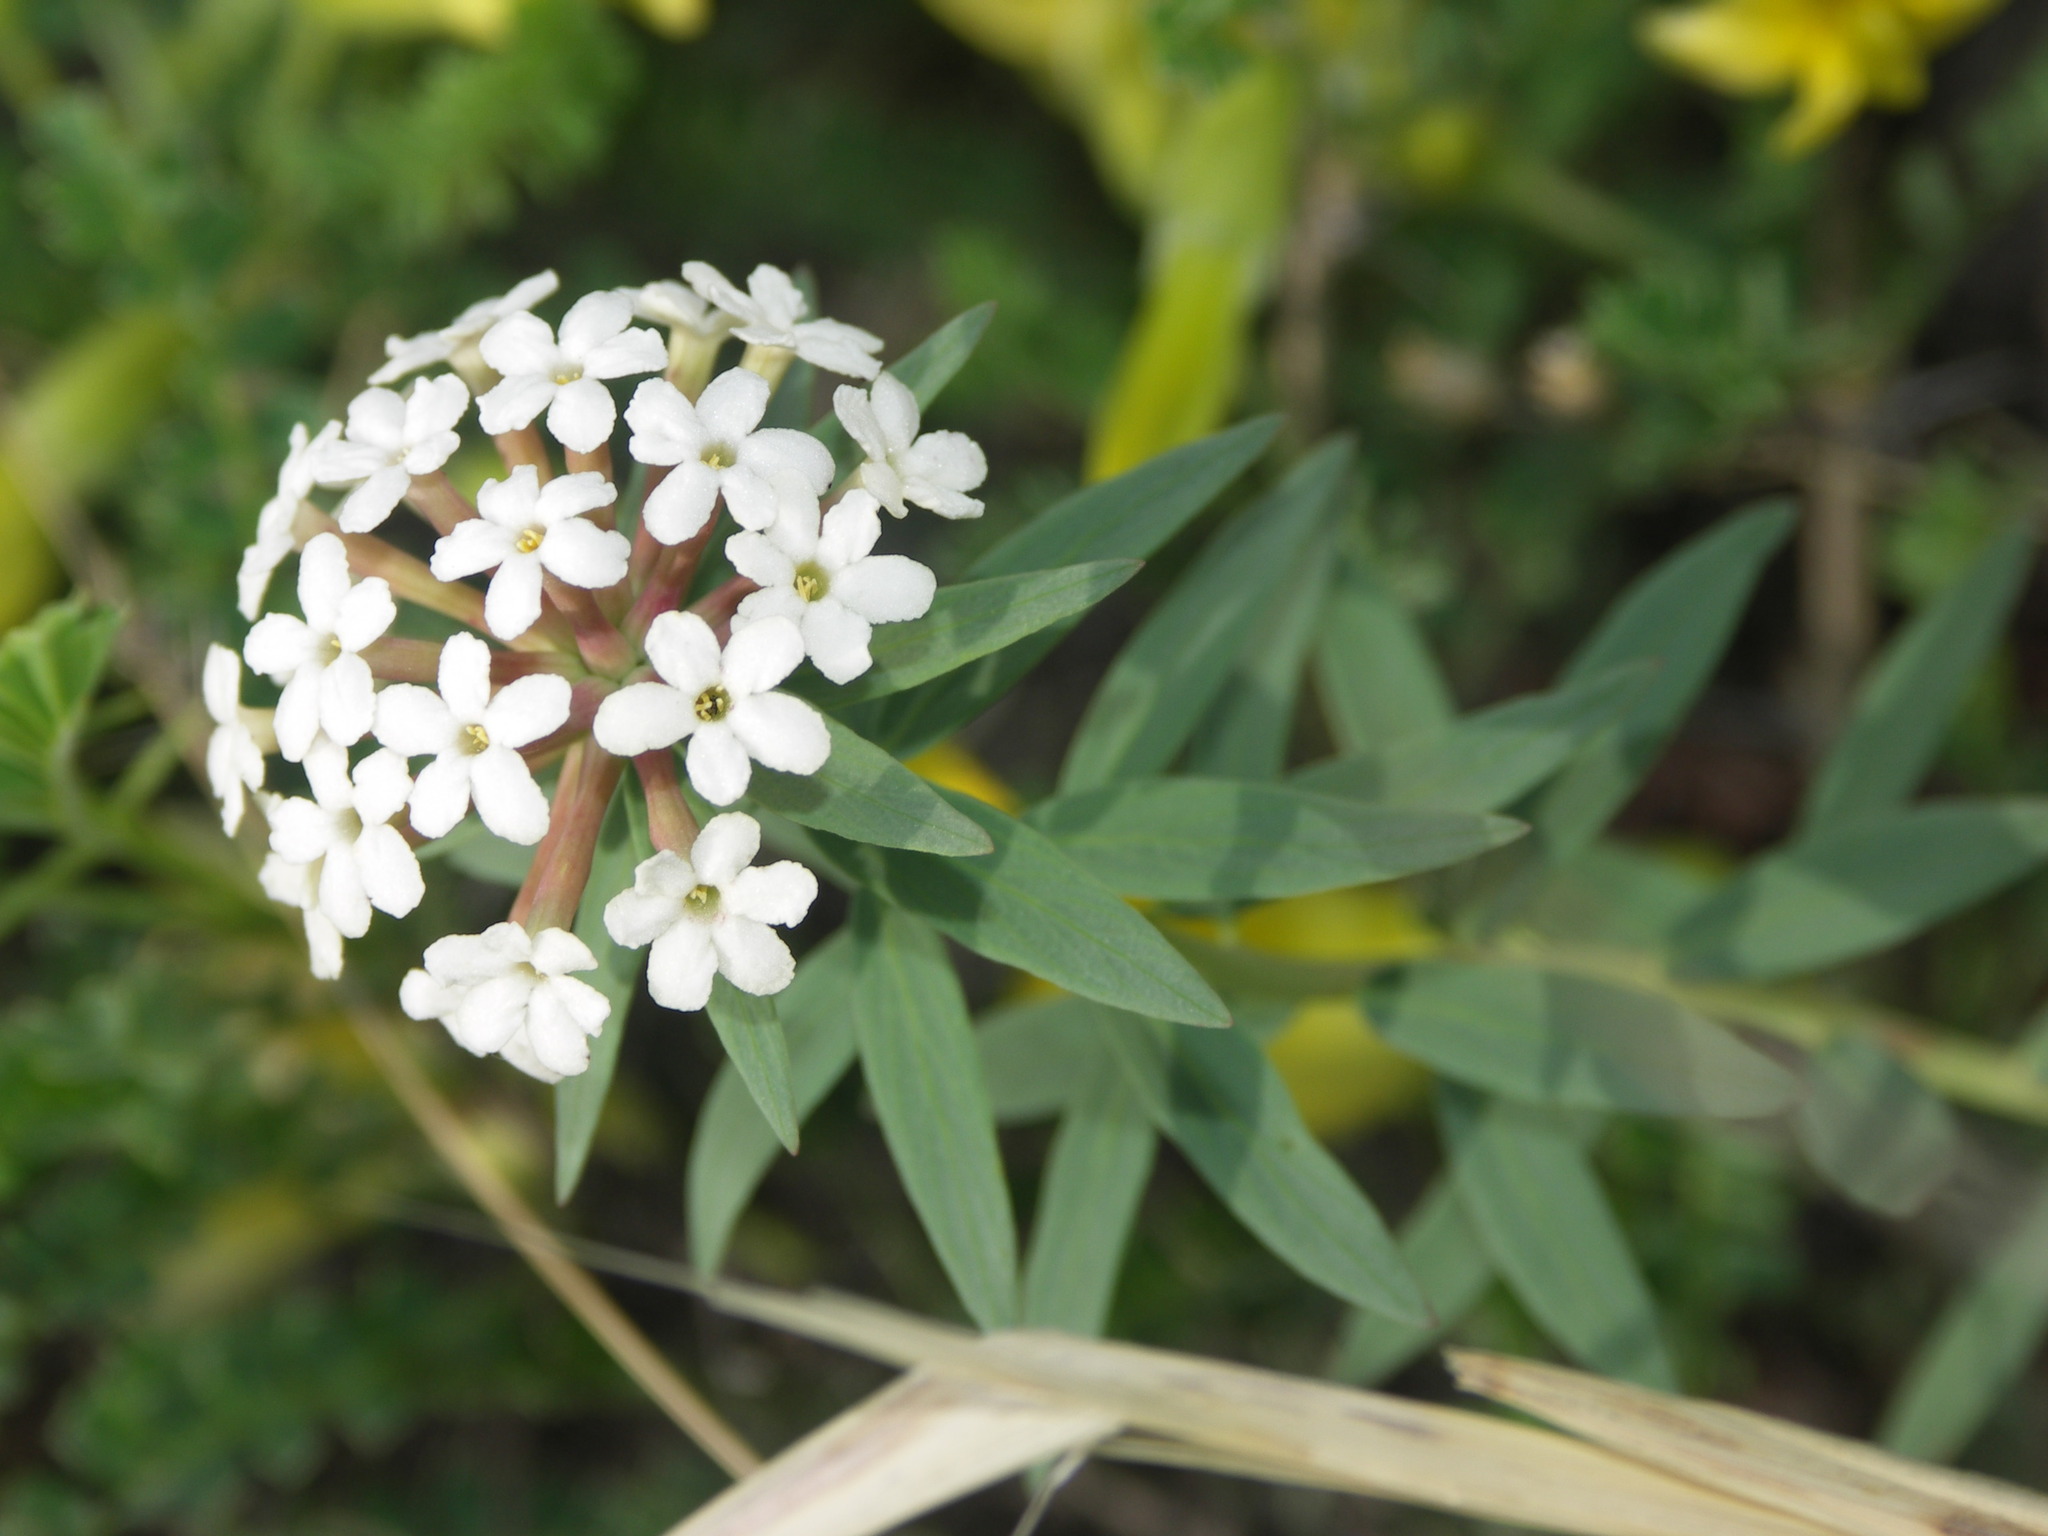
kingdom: Plantae
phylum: Tracheophyta
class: Magnoliopsida
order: Malvales
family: Thymelaeaceae
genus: Stellera
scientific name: Stellera chamaejasme
